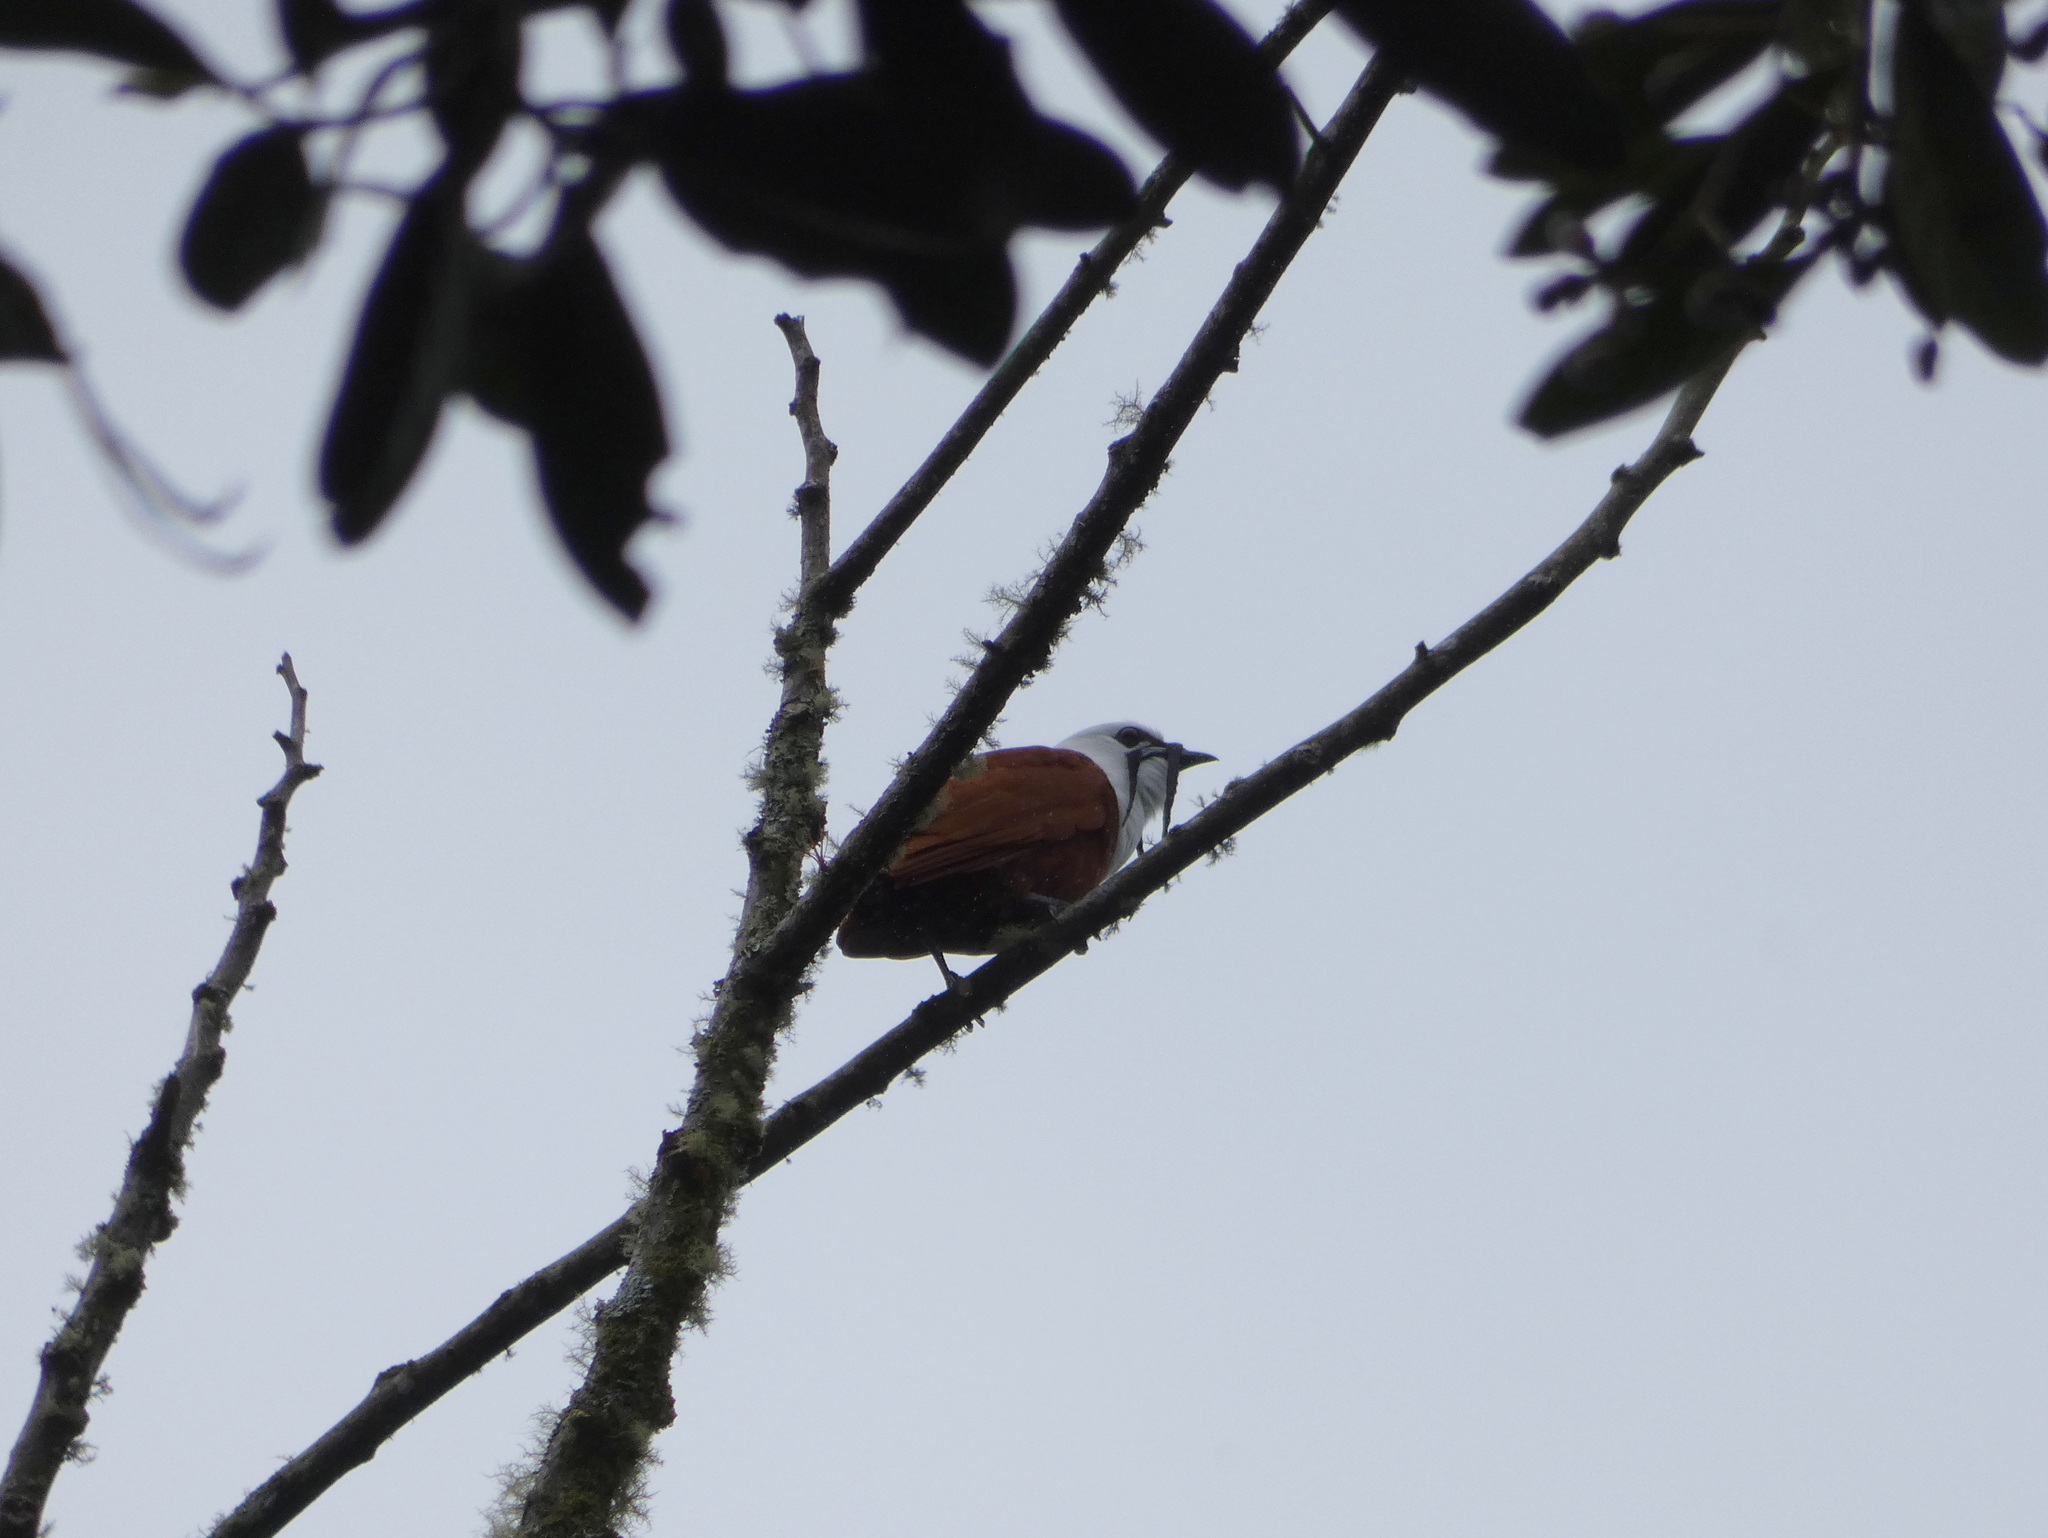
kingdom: Animalia
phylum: Chordata
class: Aves
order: Passeriformes
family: Cotingidae
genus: Procnias
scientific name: Procnias tricarunculatus
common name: Three-wattled bellbird
